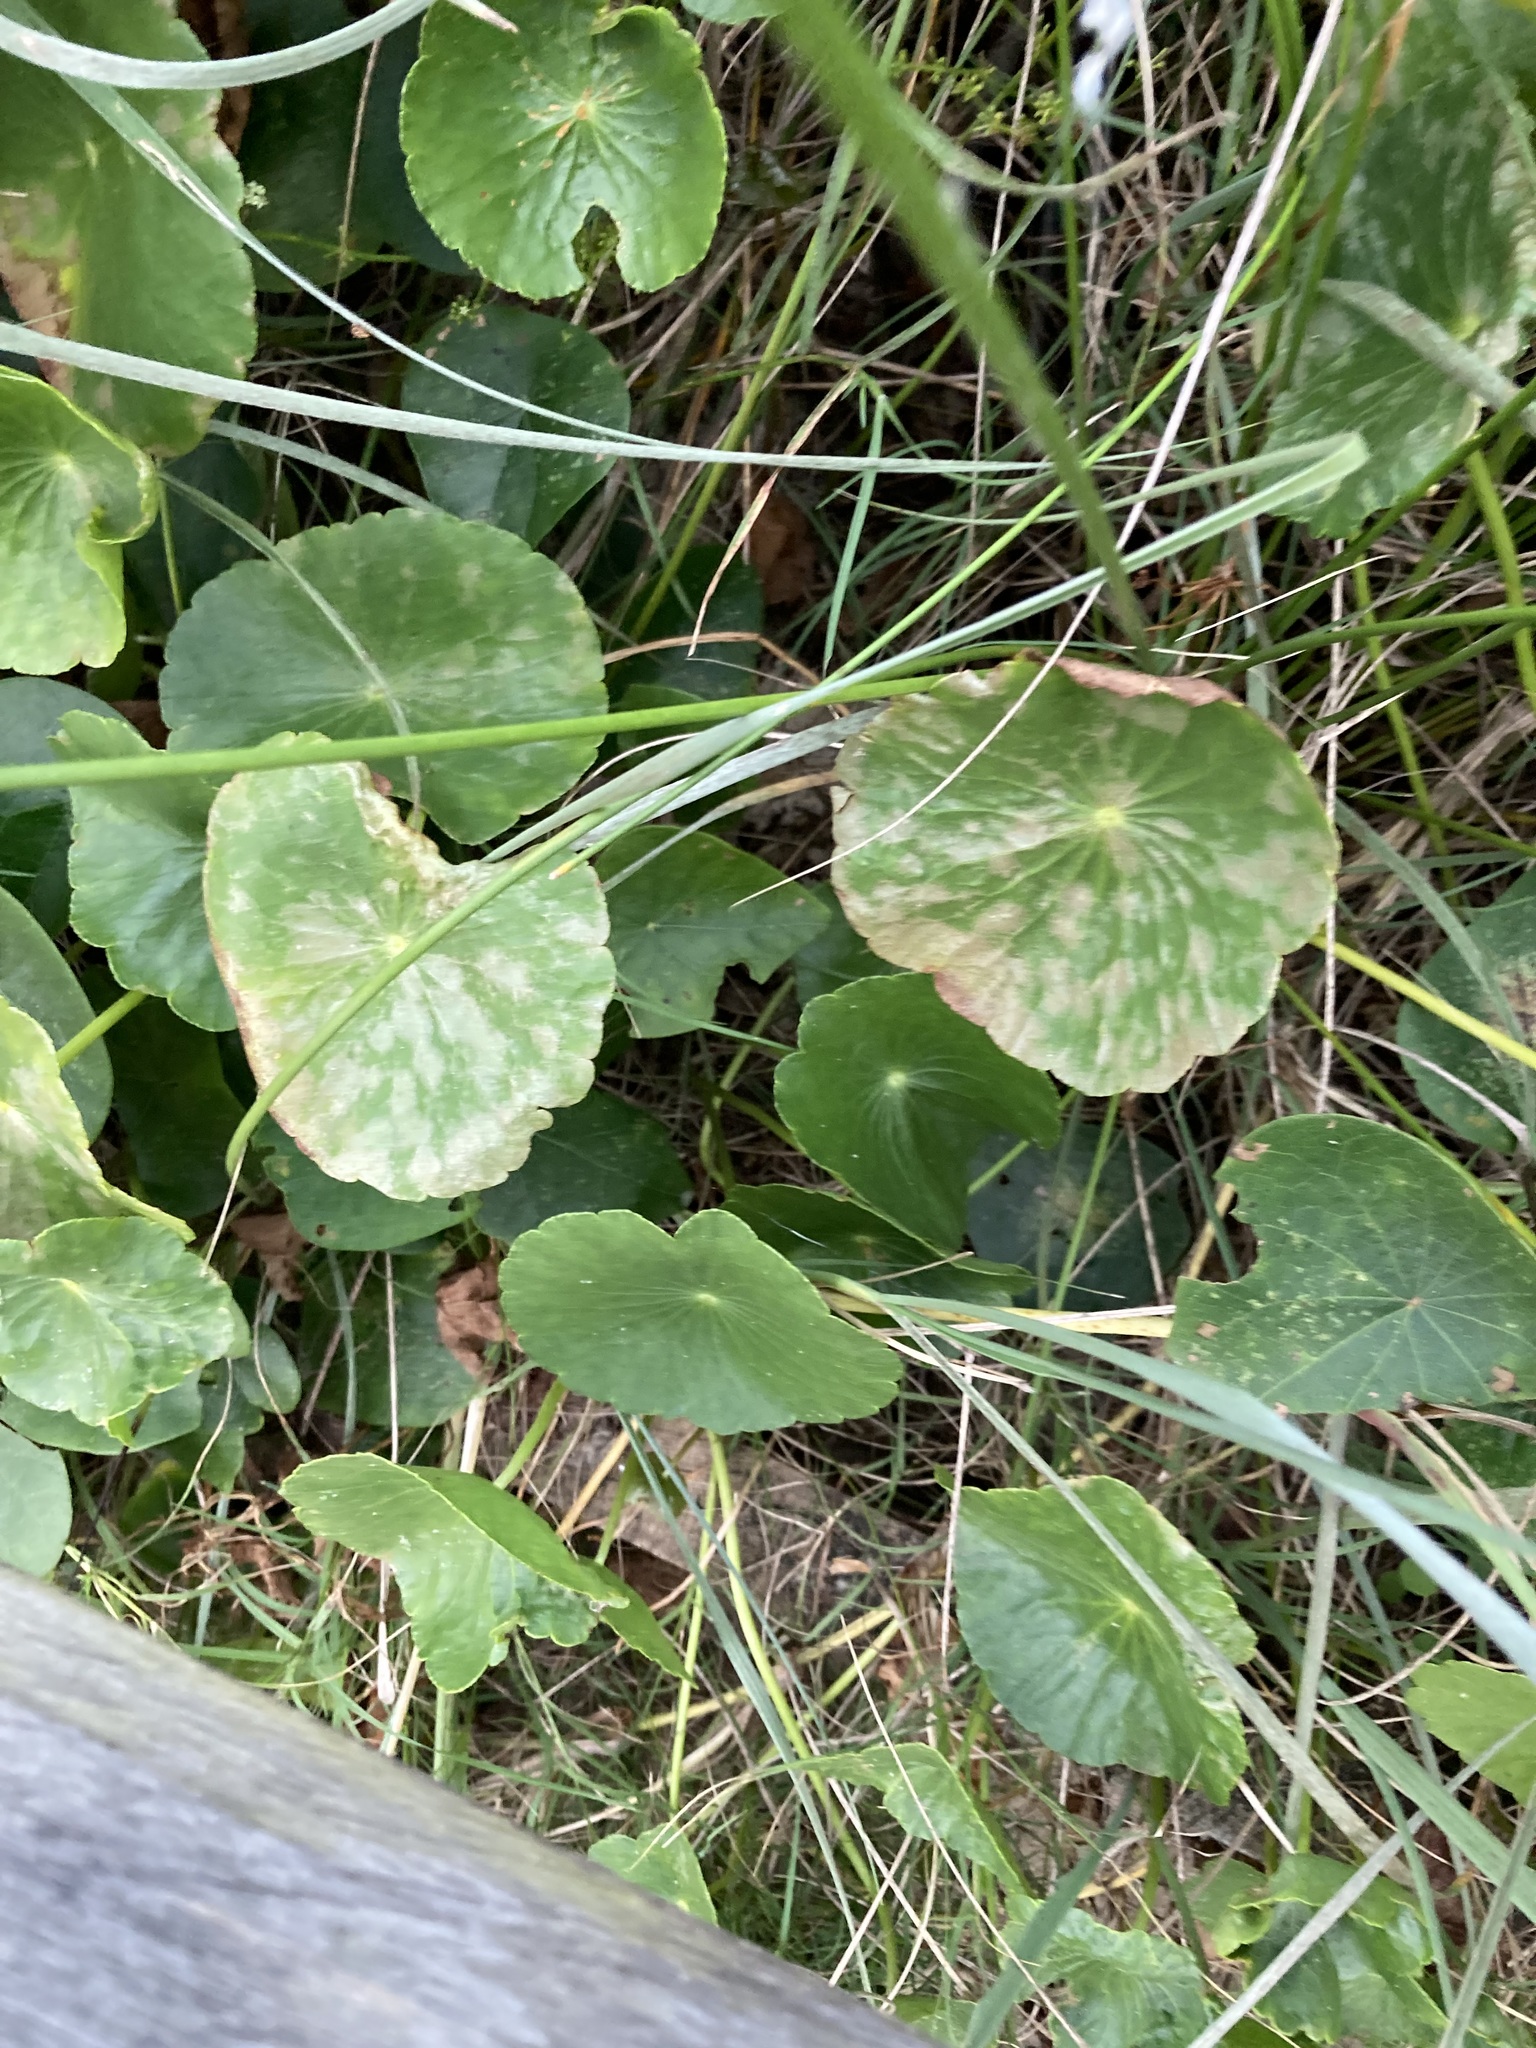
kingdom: Plantae
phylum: Tracheophyta
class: Magnoliopsida
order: Apiales
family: Araliaceae
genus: Hydrocotyle
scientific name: Hydrocotyle bonariensis
